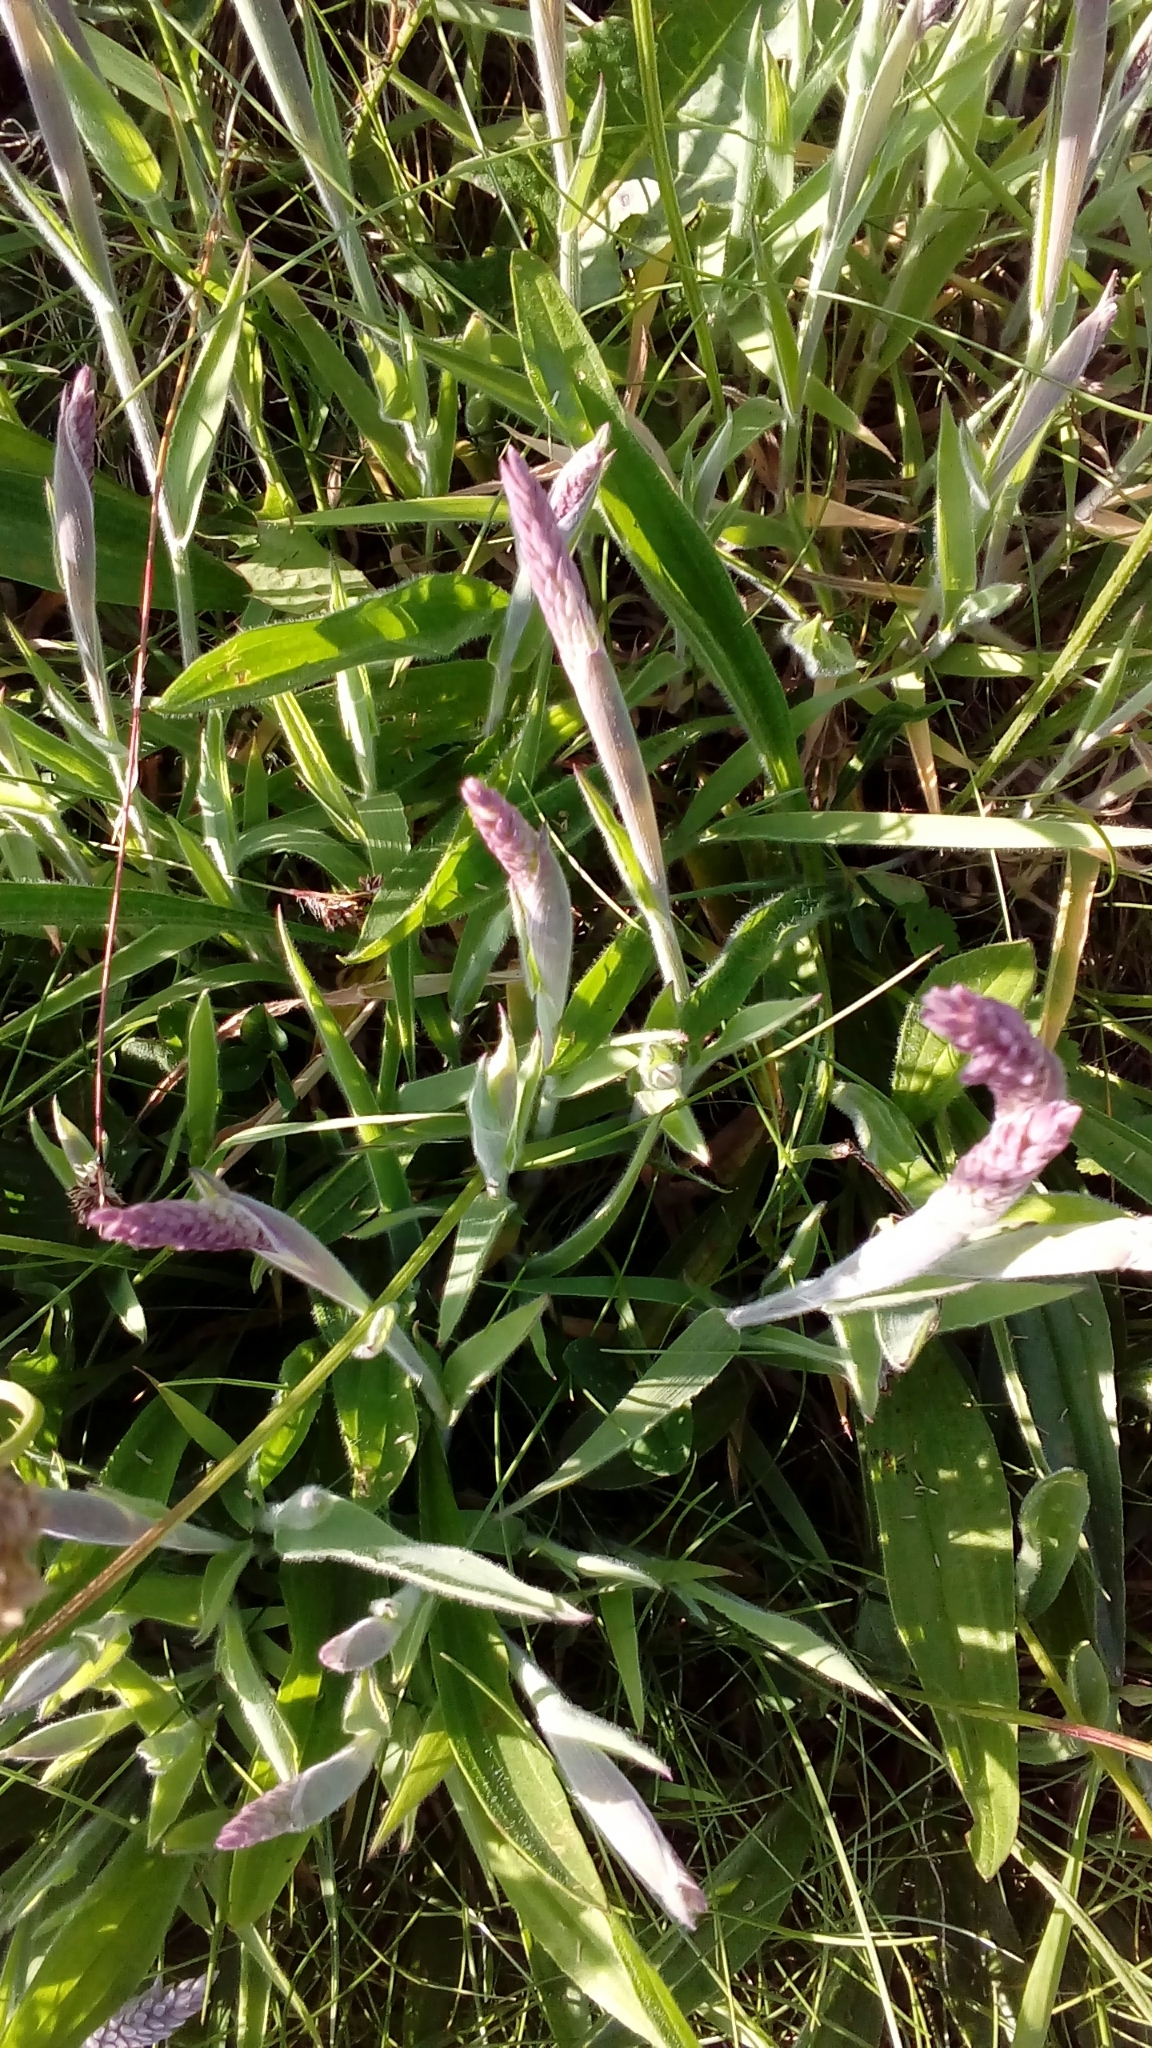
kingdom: Plantae
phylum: Tracheophyta
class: Liliopsida
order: Poales
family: Poaceae
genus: Holcus
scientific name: Holcus lanatus
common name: Yorkshire-fog
